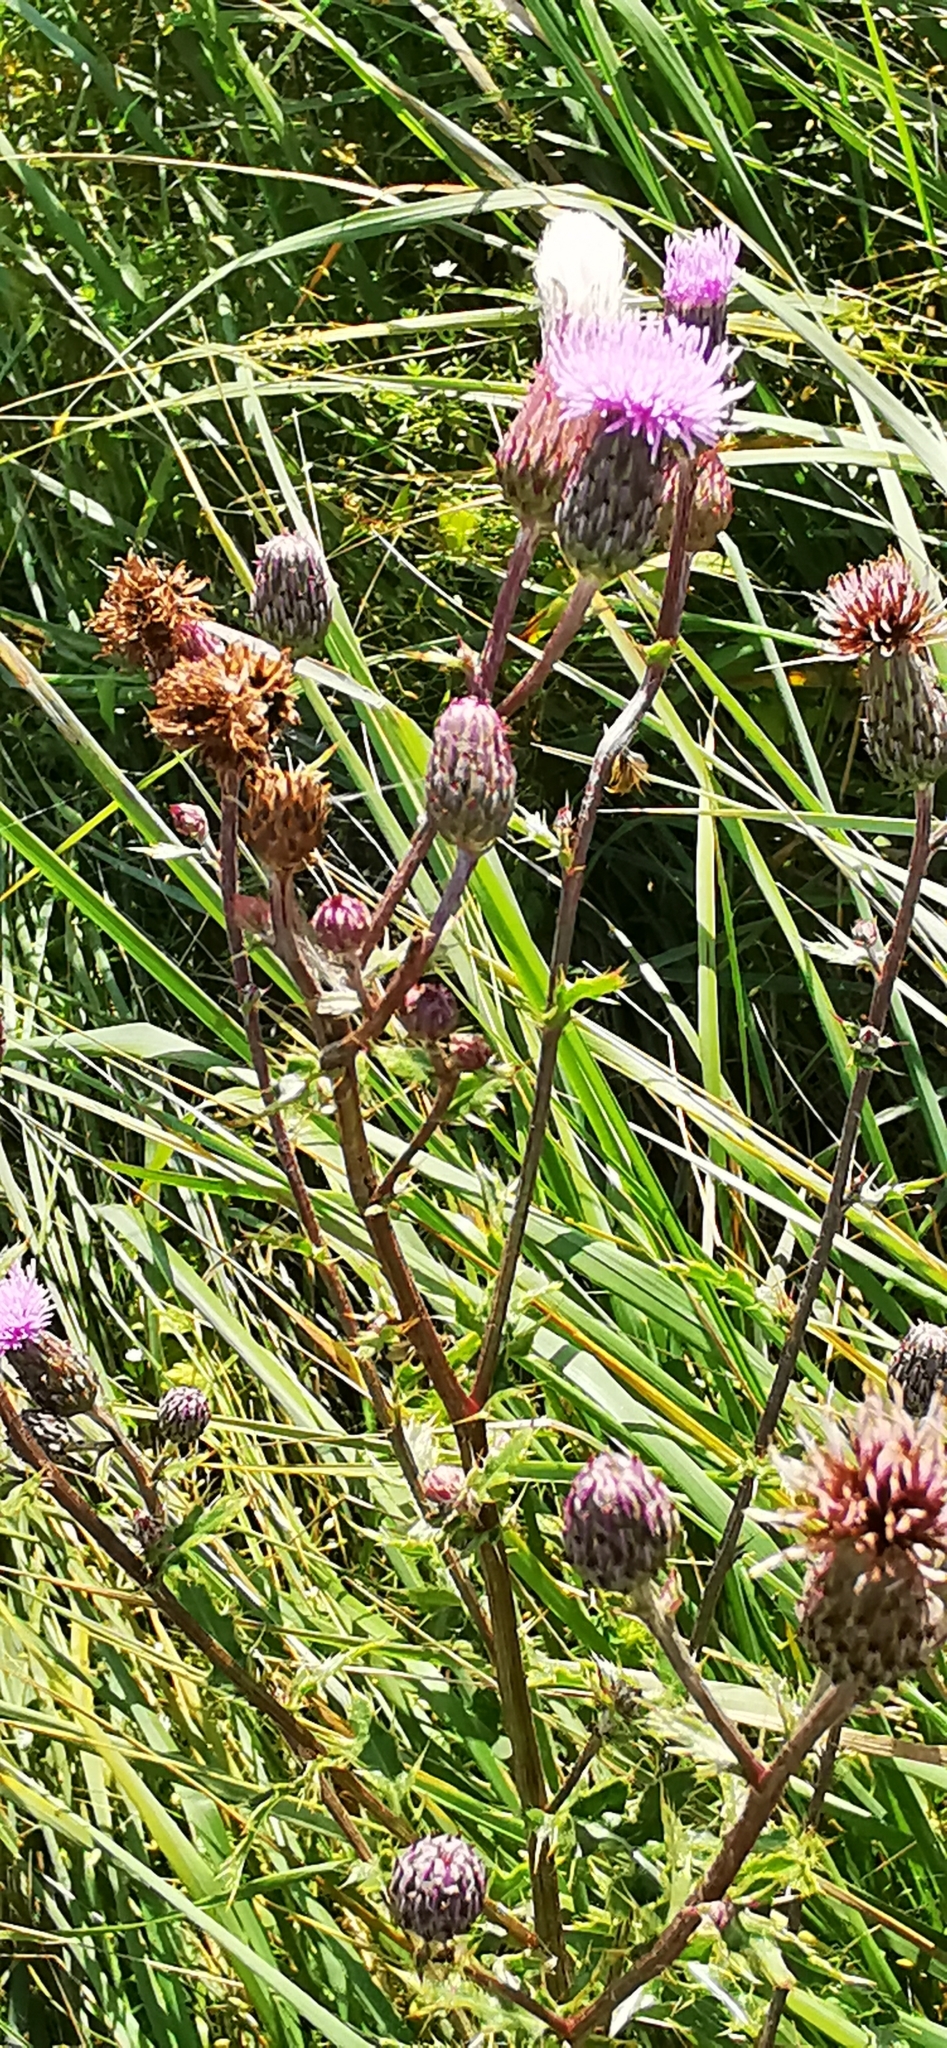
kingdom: Plantae
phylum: Tracheophyta
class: Magnoliopsida
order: Asterales
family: Asteraceae
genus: Cirsium
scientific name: Cirsium arvense
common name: Creeping thistle
